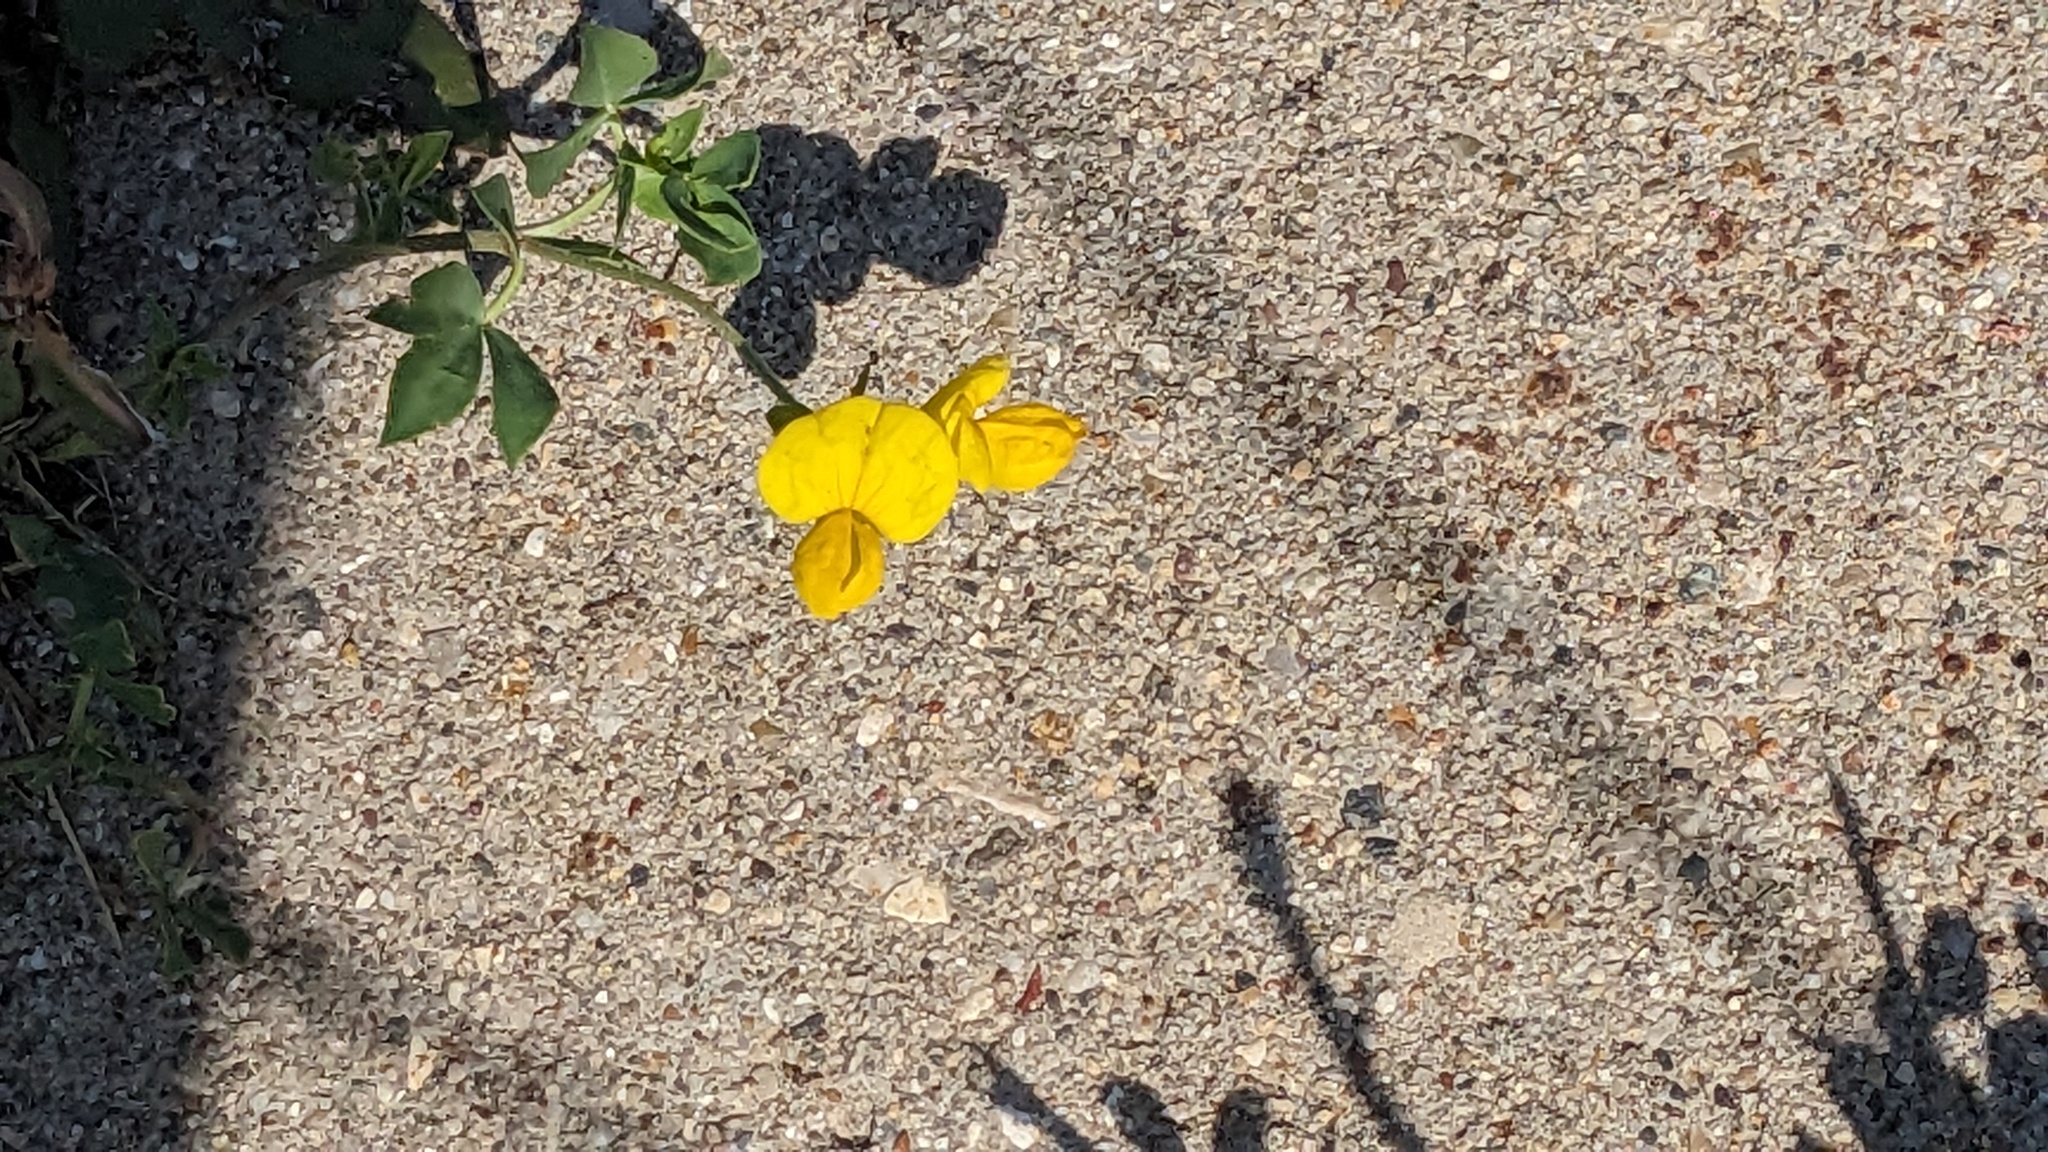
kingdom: Plantae
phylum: Tracheophyta
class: Magnoliopsida
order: Fabales
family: Fabaceae
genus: Lotus
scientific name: Lotus corniculatus
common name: Common bird's-foot-trefoil
